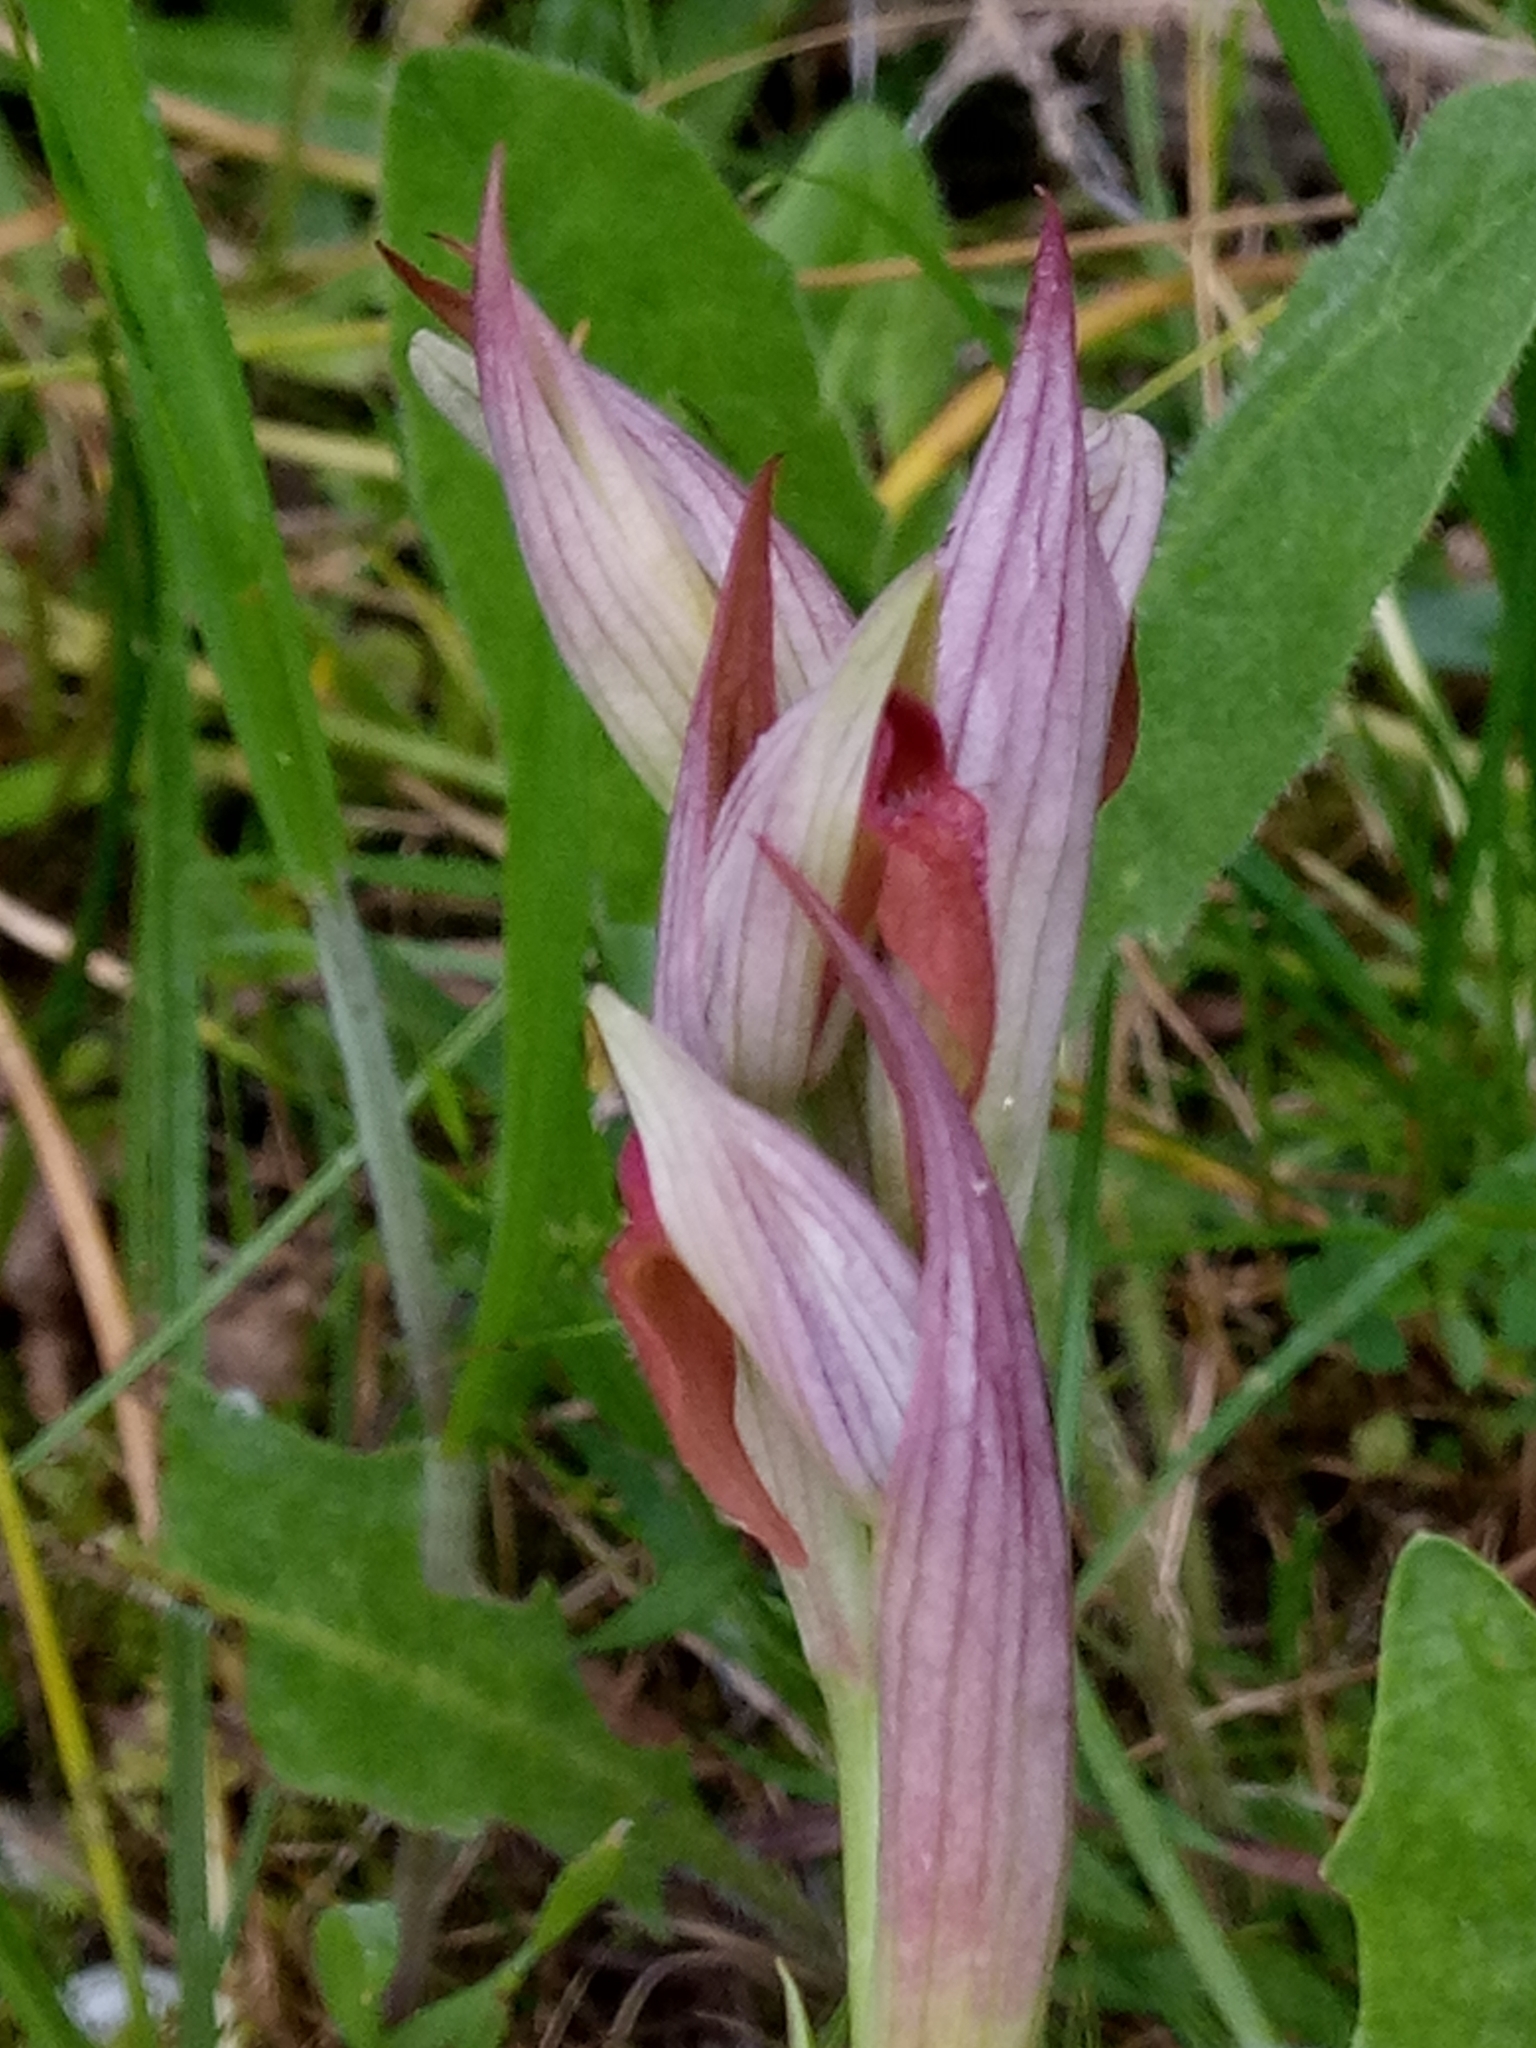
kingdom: Plantae
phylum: Tracheophyta
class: Liliopsida
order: Asparagales
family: Orchidaceae
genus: Serapias
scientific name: Serapias parviflora
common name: Small-flowered tongue-orchid
